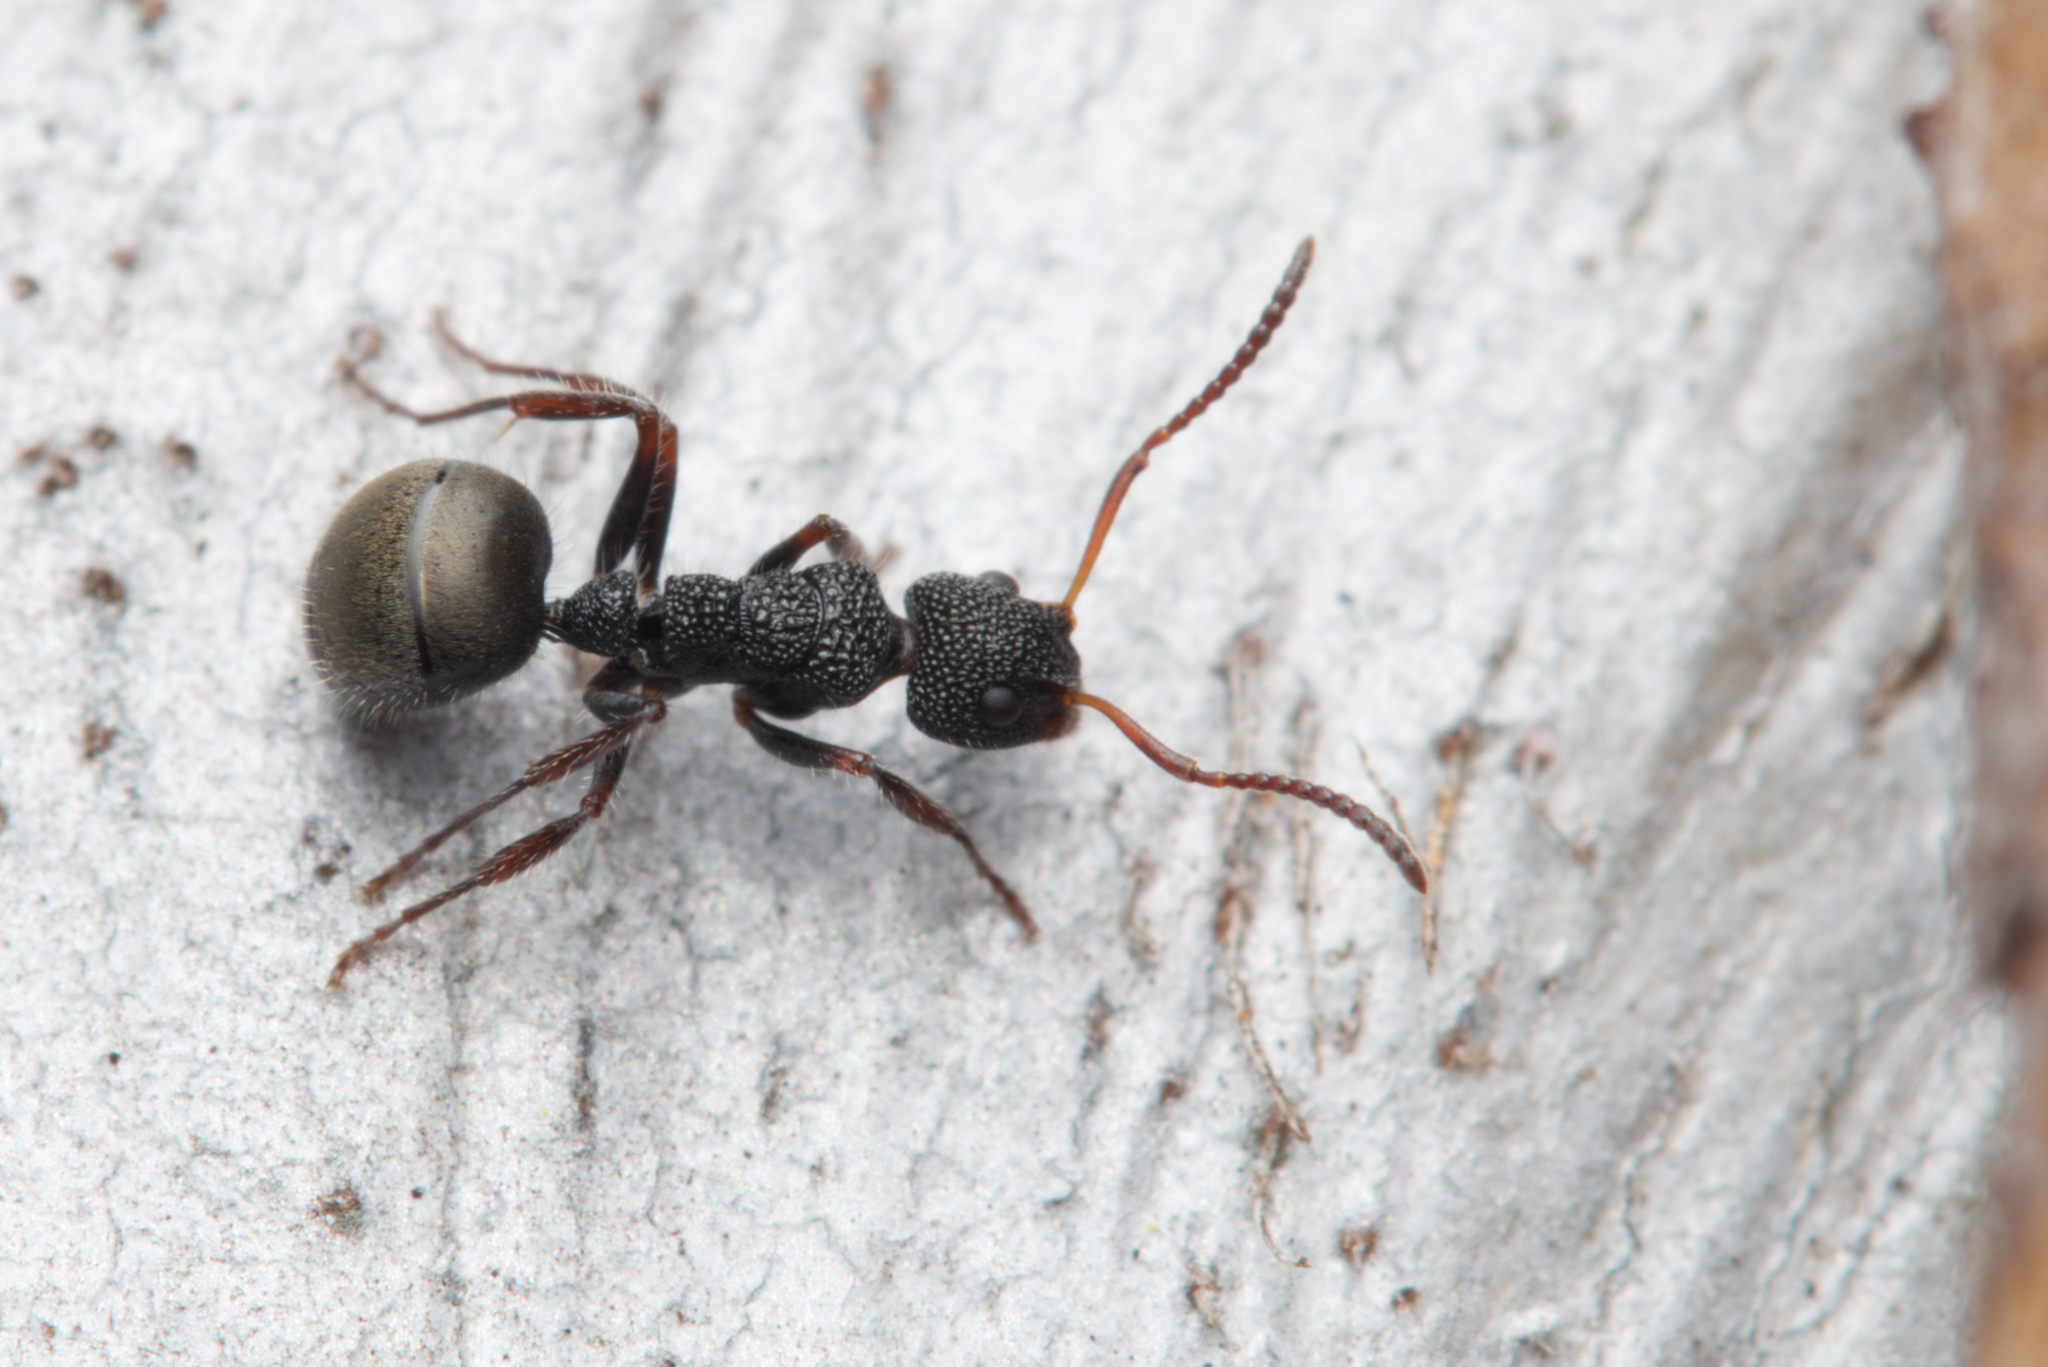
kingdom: Animalia
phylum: Arthropoda
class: Insecta
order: Hymenoptera
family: Formicidae
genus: Dolichoderus
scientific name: Dolichoderus scrobiculatus
